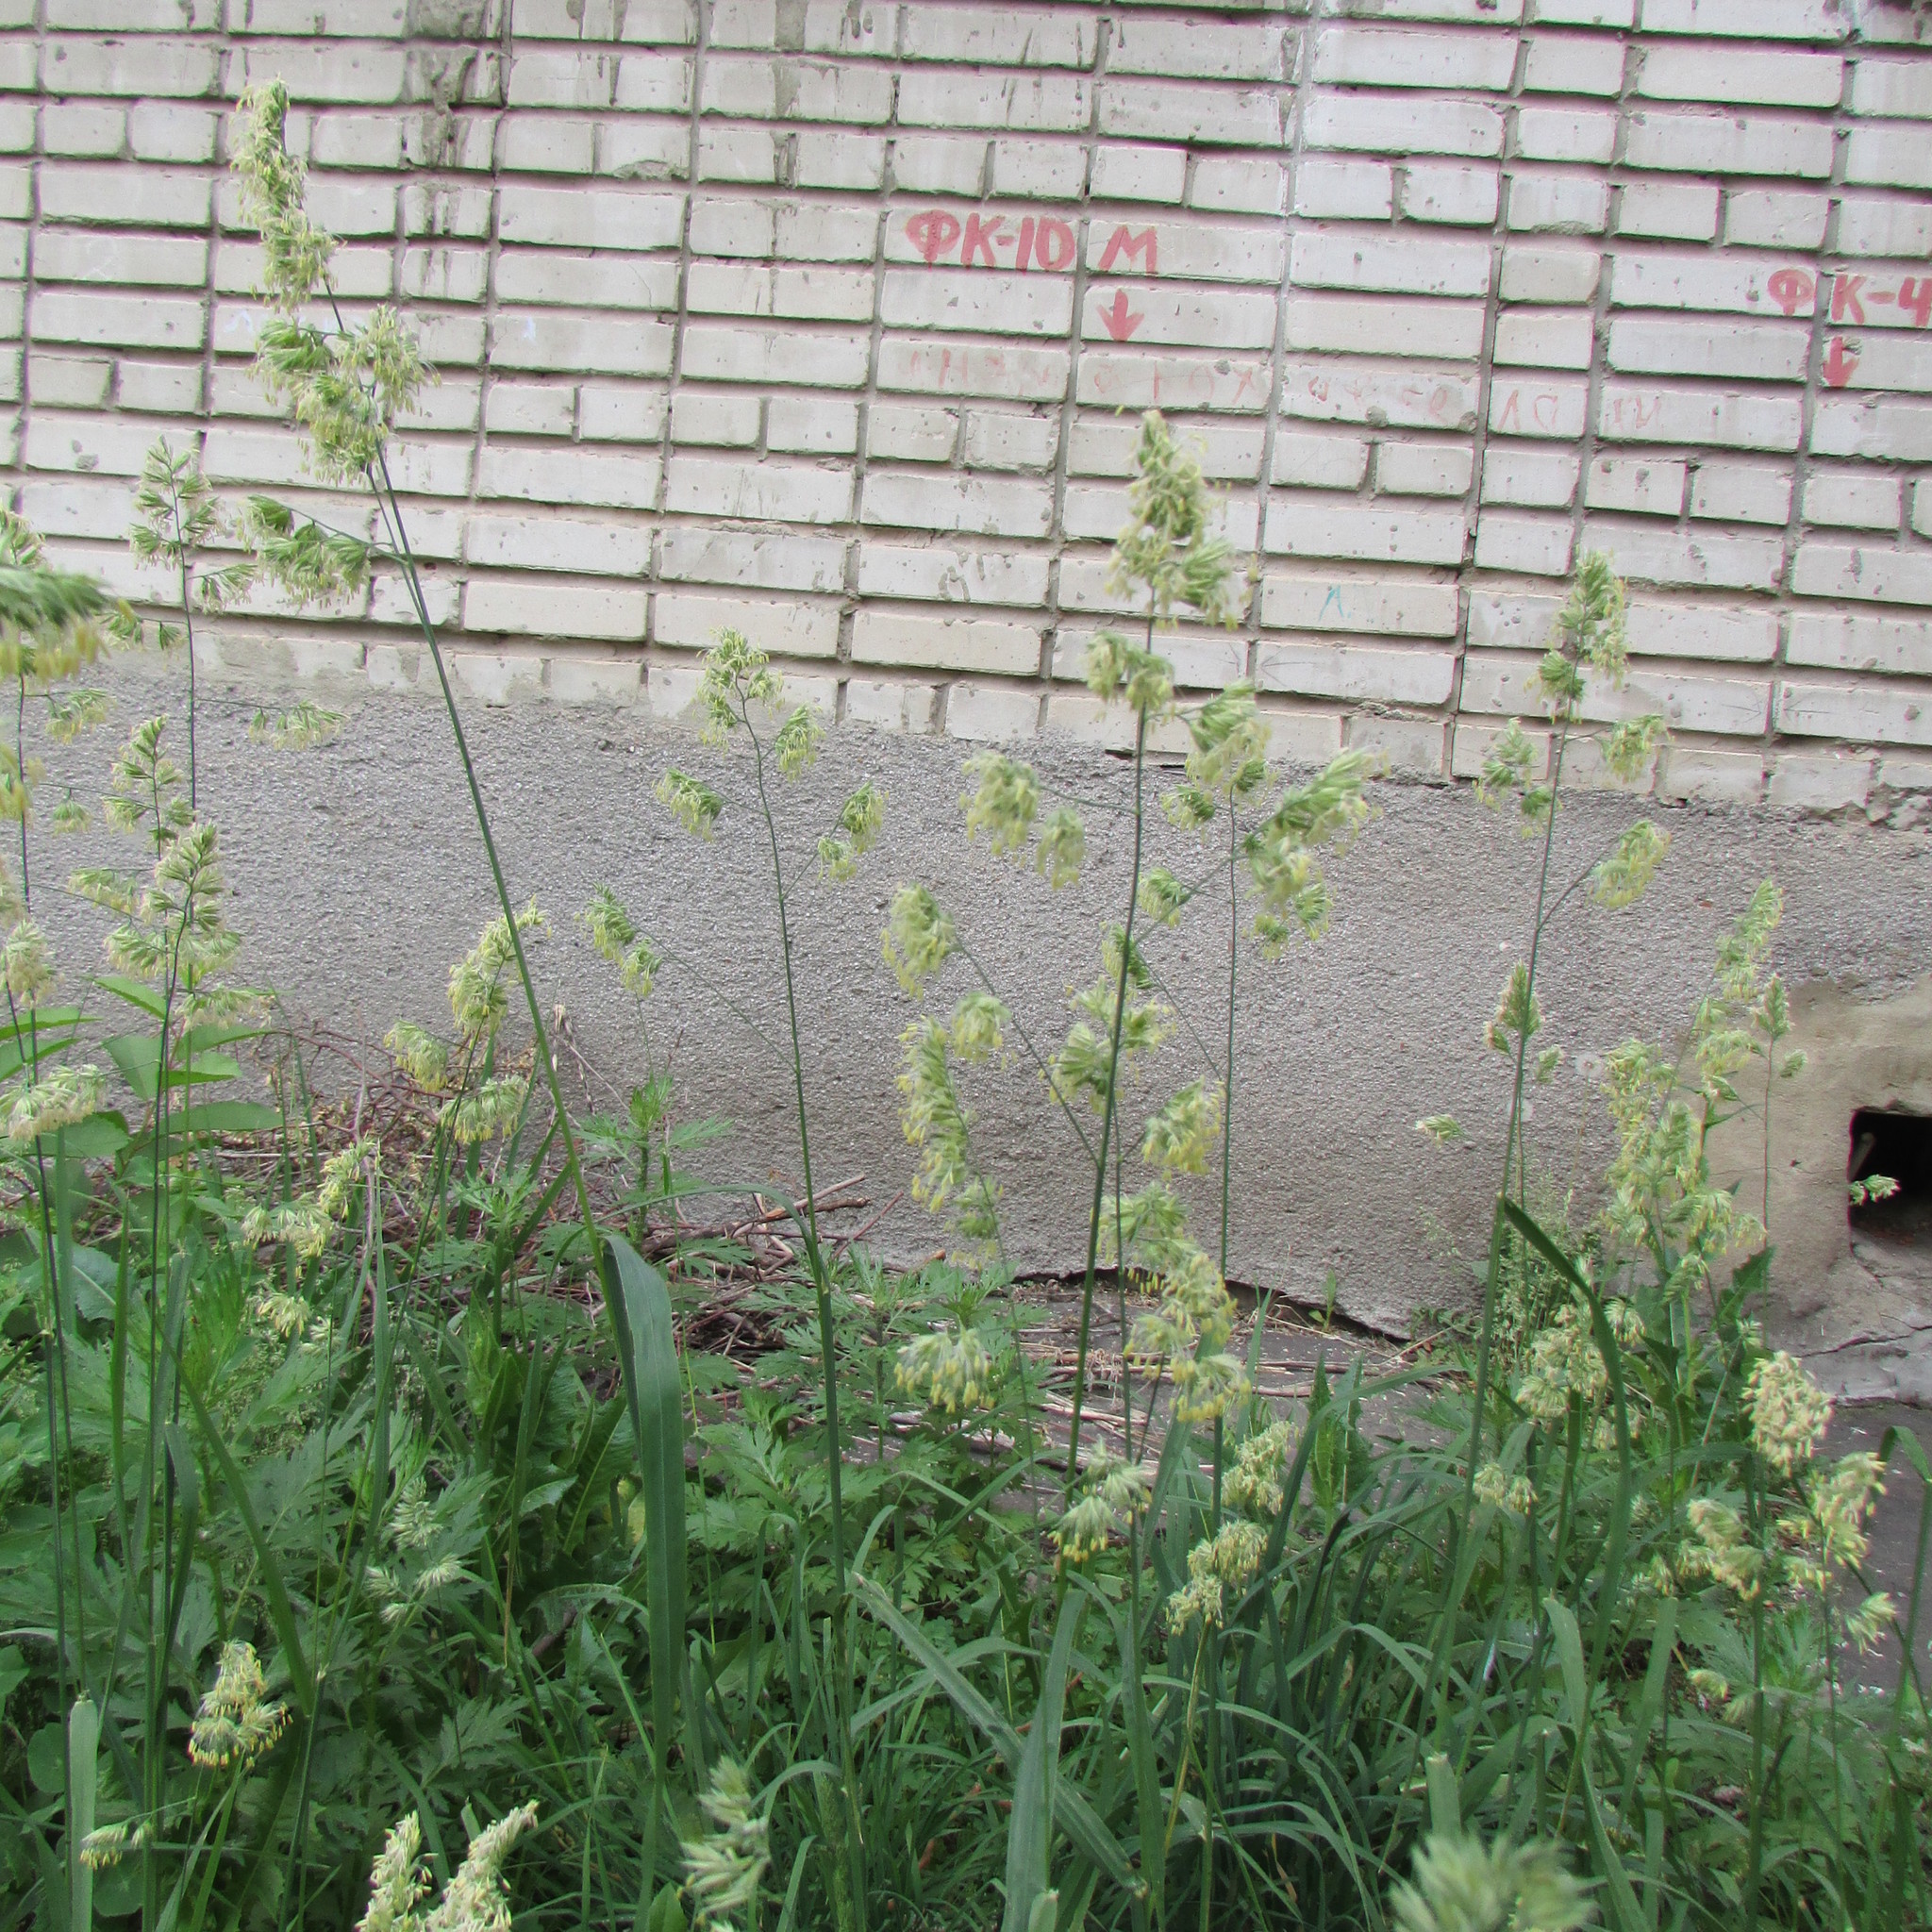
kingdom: Plantae
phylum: Tracheophyta
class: Liliopsida
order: Poales
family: Poaceae
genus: Dactylis
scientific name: Dactylis glomerata
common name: Orchardgrass
